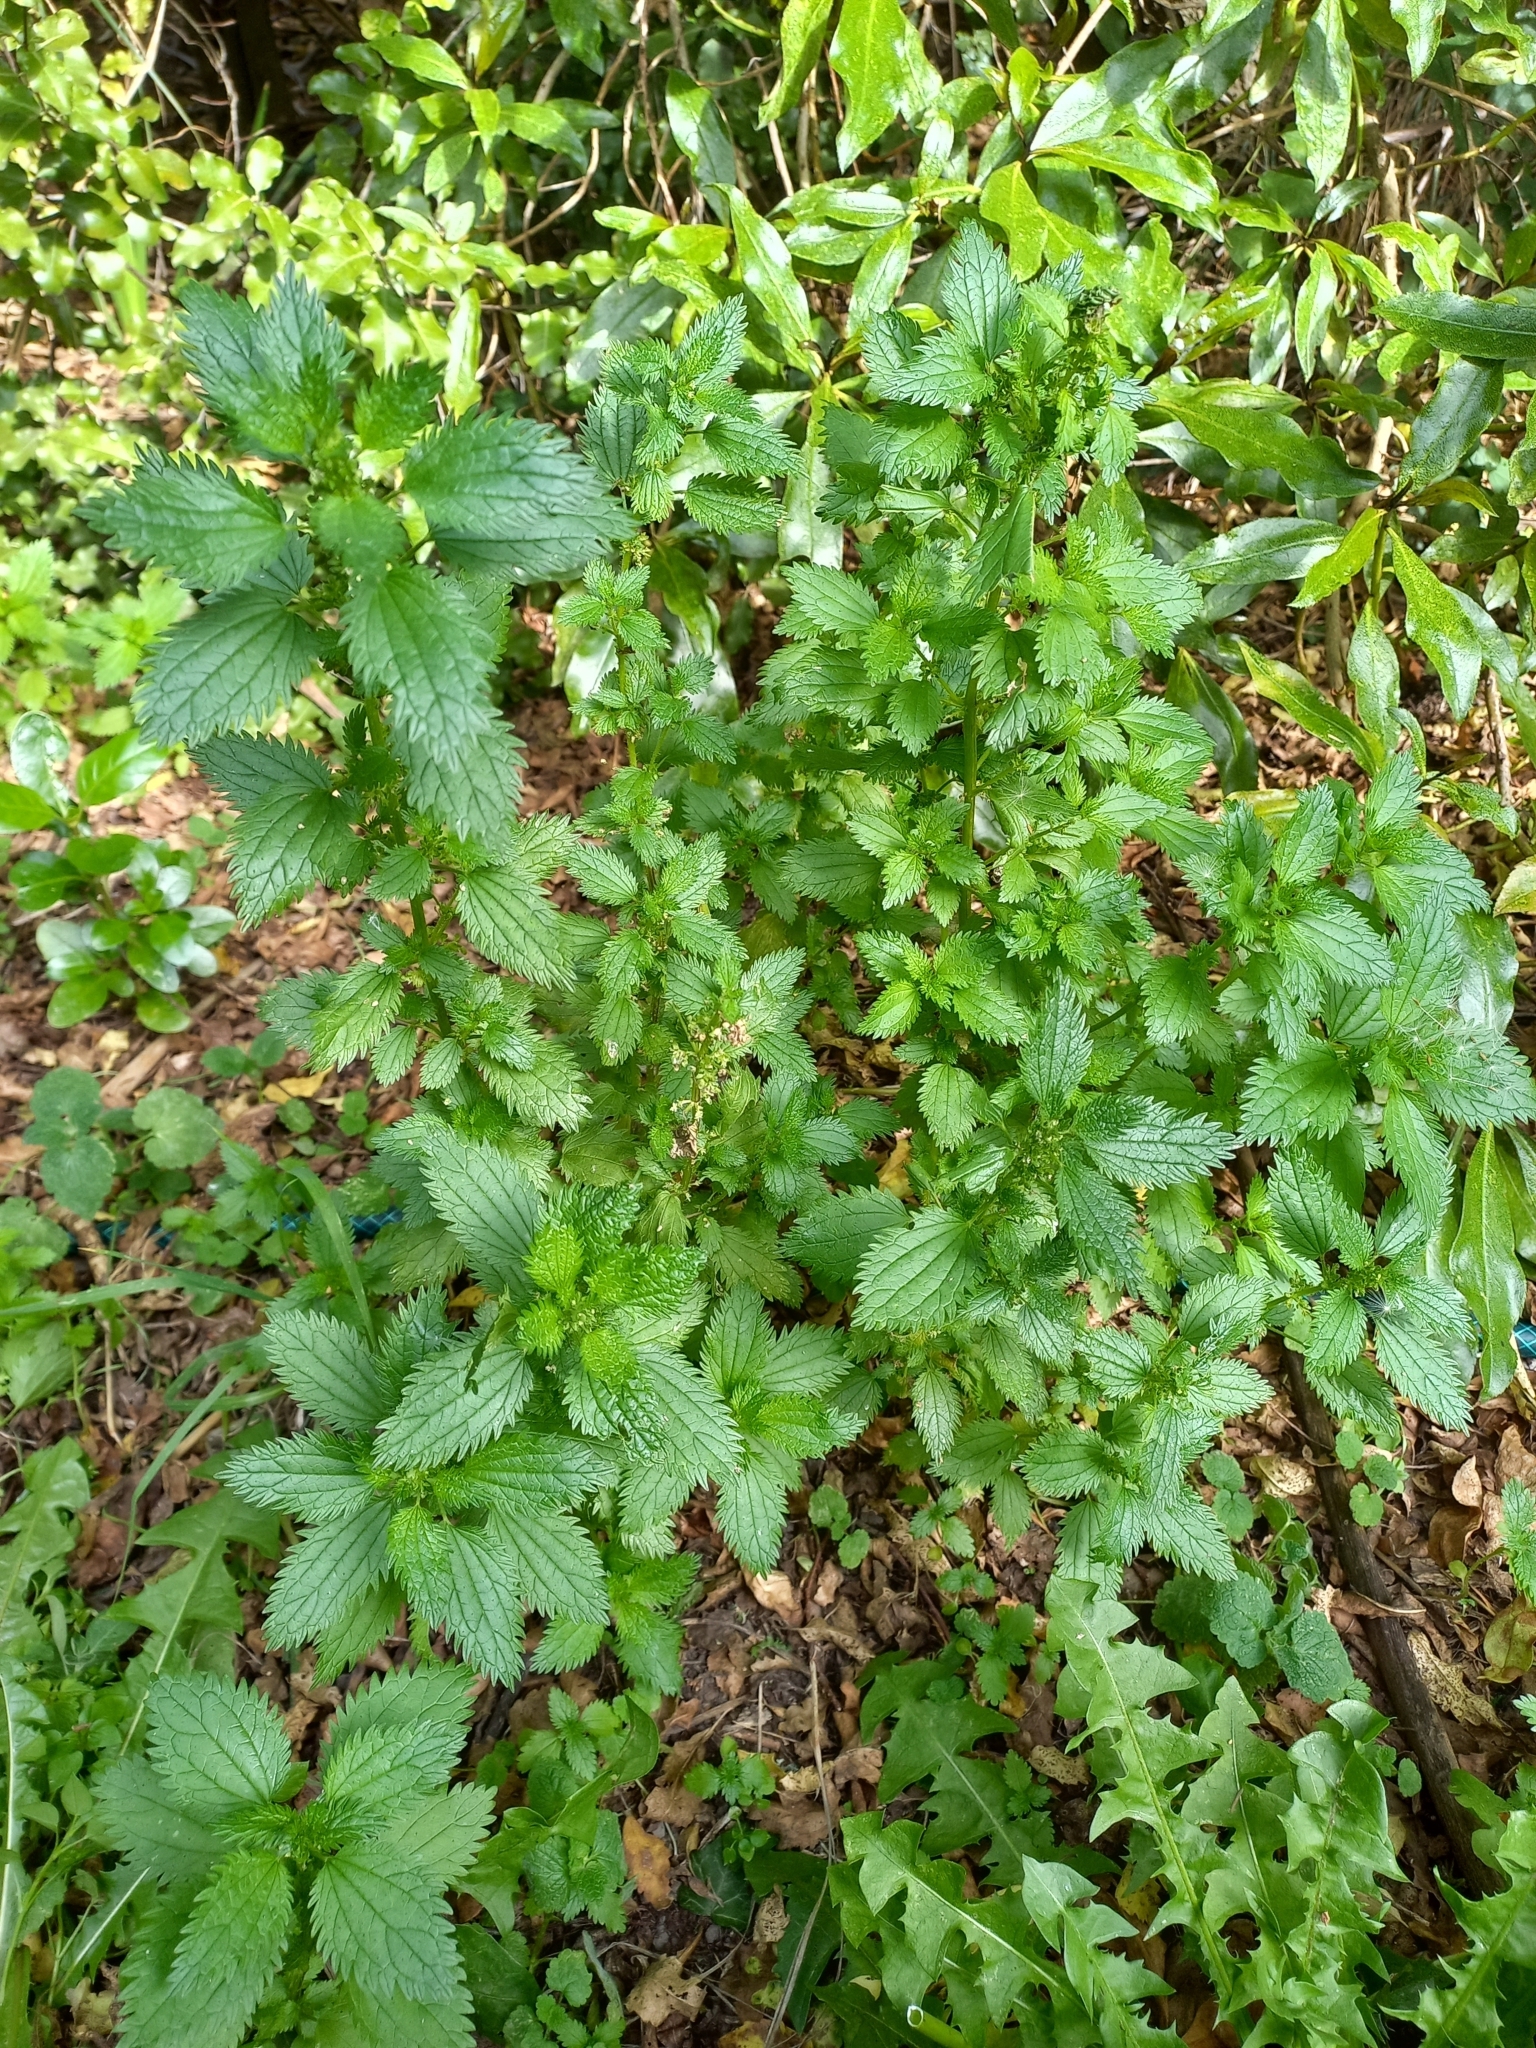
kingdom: Plantae
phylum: Tracheophyta
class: Magnoliopsida
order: Rosales
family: Urticaceae
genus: Urtica
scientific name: Urtica urens
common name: Dwarf nettle
